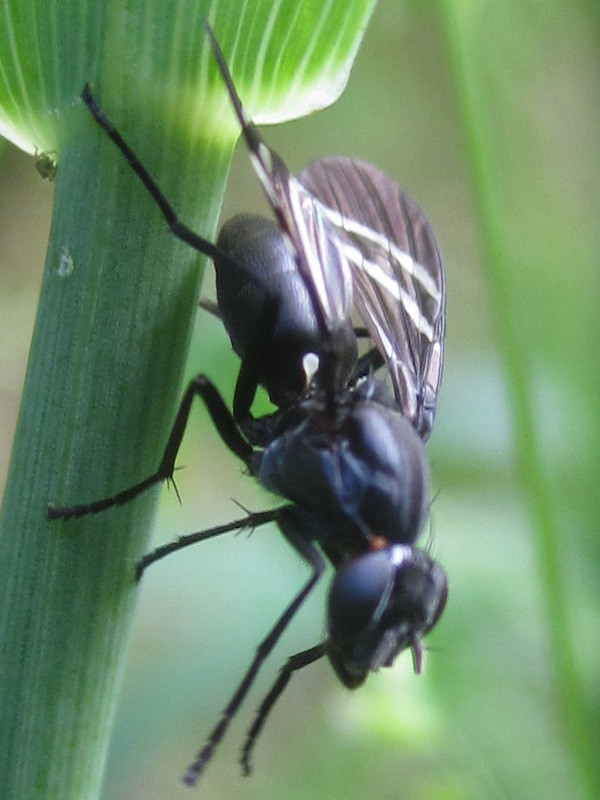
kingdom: Animalia
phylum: Arthropoda
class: Insecta
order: Diptera
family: Ulidiidae
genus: Tritoxa
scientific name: Tritoxa flexa
